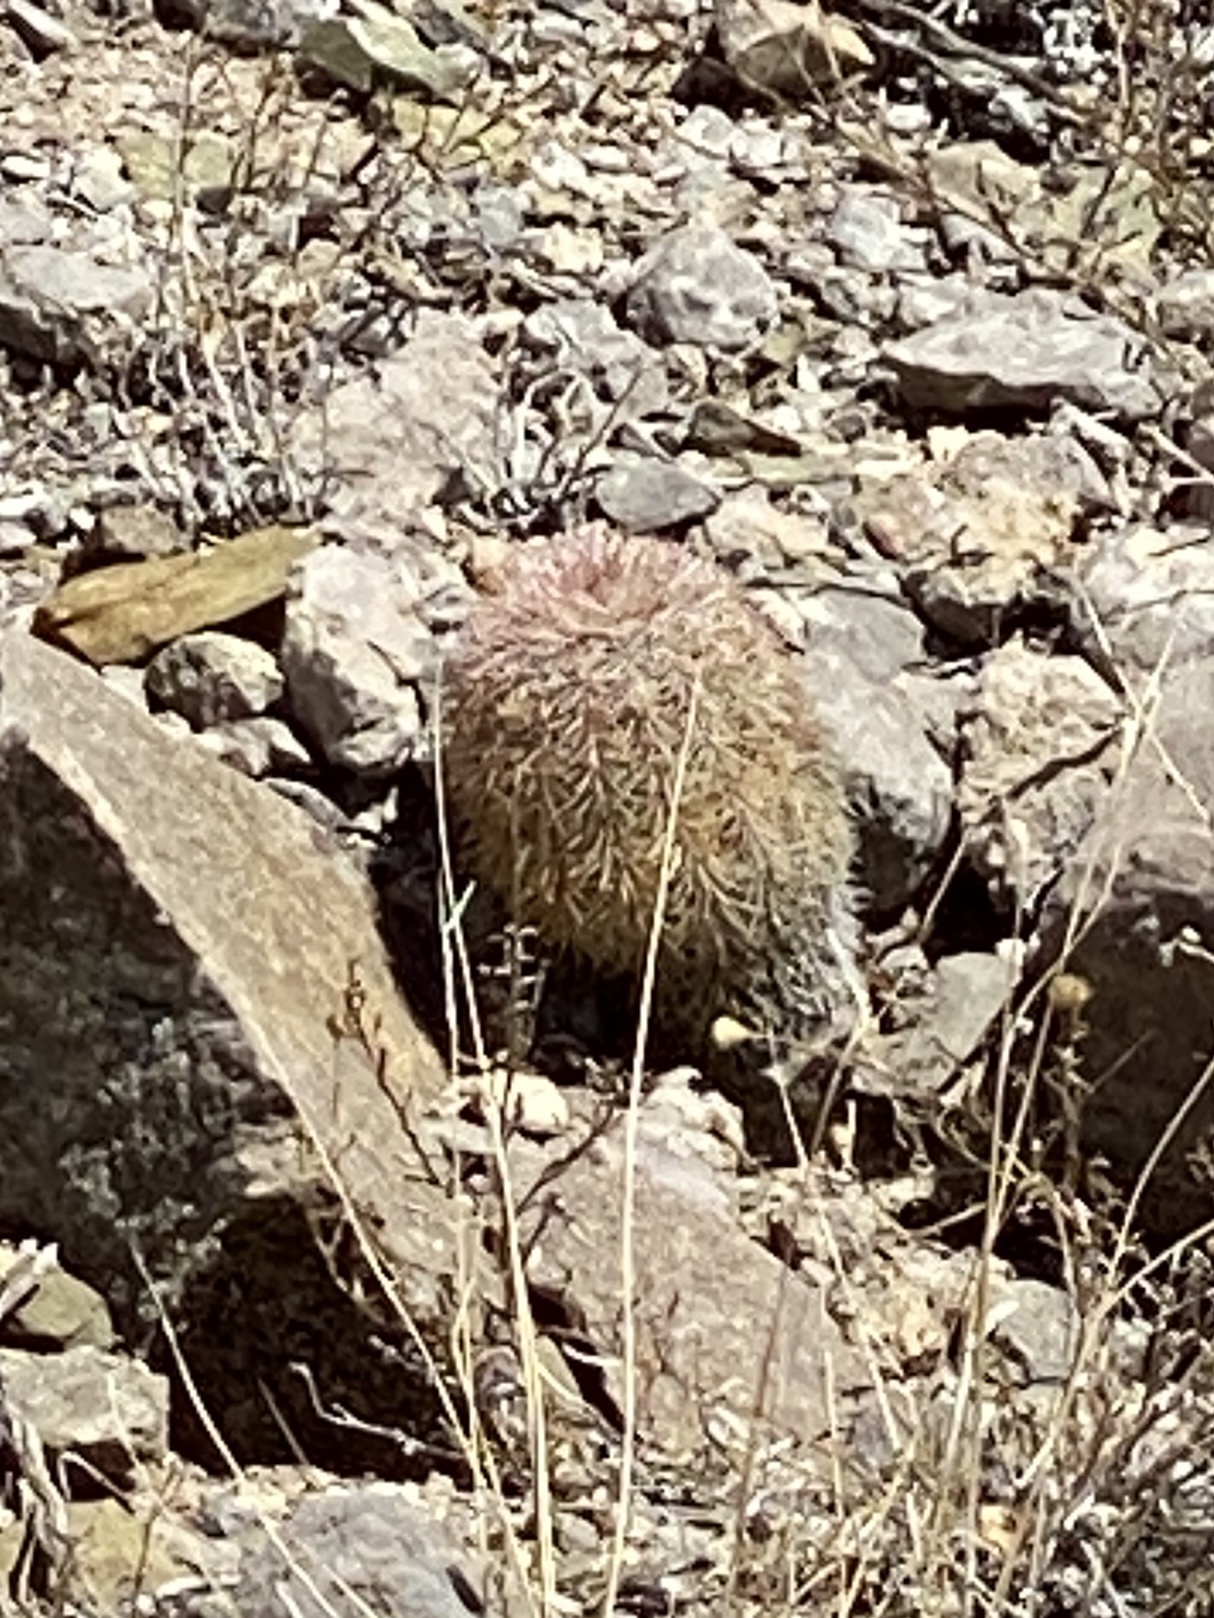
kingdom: Plantae
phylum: Tracheophyta
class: Magnoliopsida
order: Caryophyllales
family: Cactaceae
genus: Echinocereus
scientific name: Echinocereus dasyacanthus
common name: Spiny hedgehog cactus
